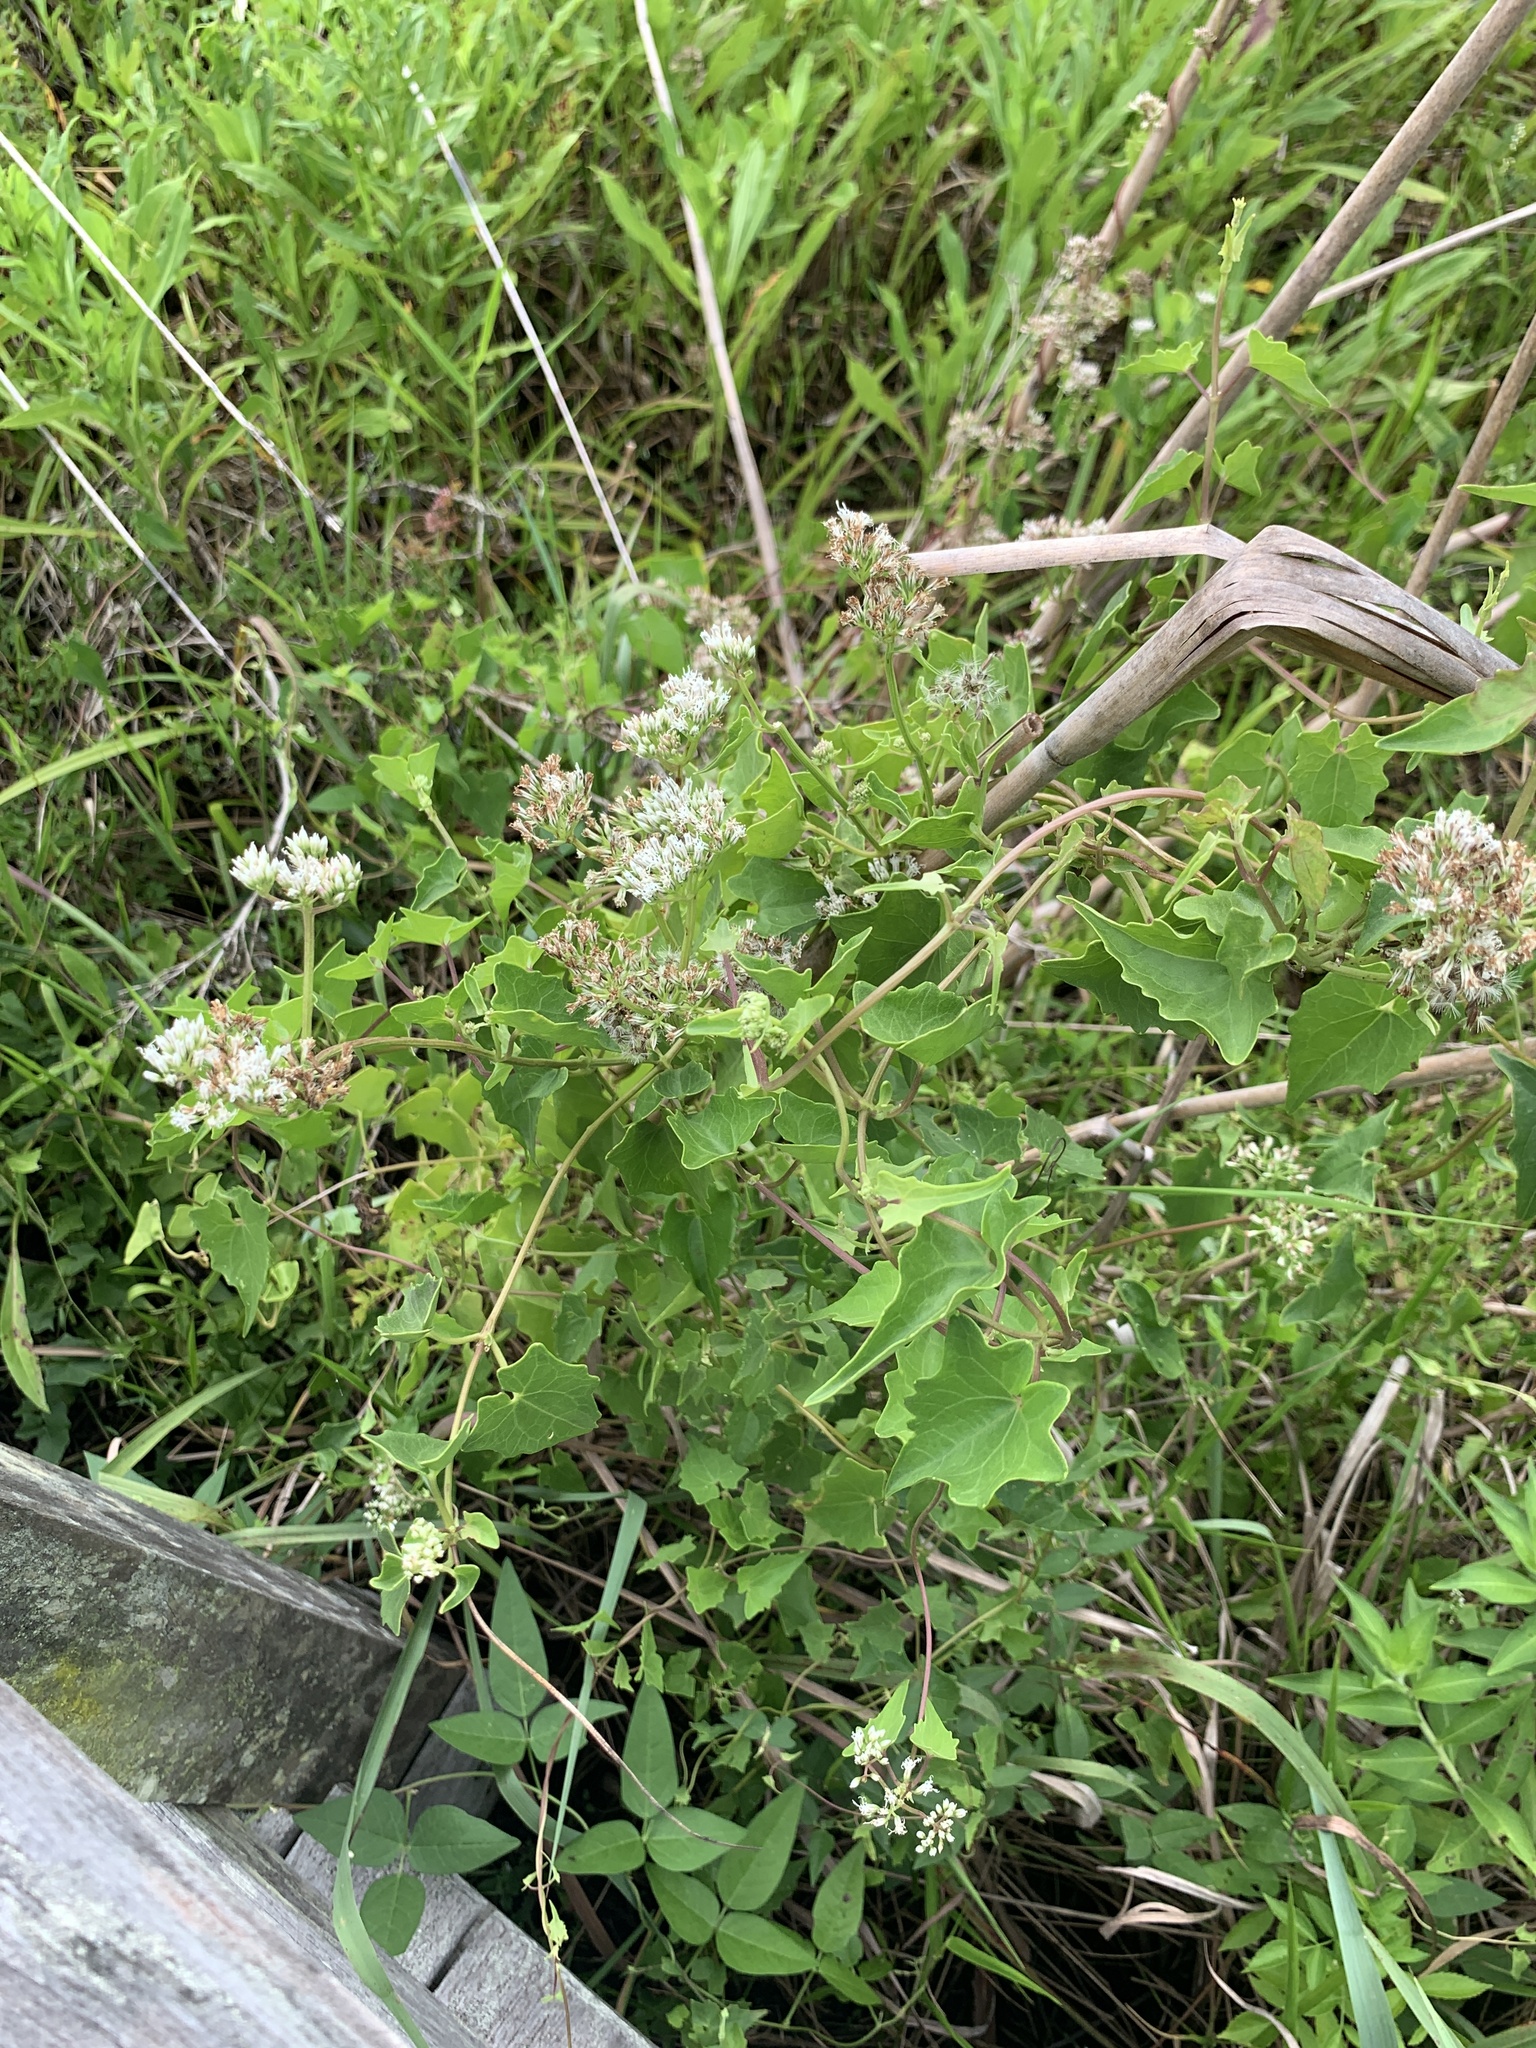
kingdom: Plantae
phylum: Tracheophyta
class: Magnoliopsida
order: Asterales
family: Asteraceae
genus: Mikania
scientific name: Mikania scandens
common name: Climbing hempvine
